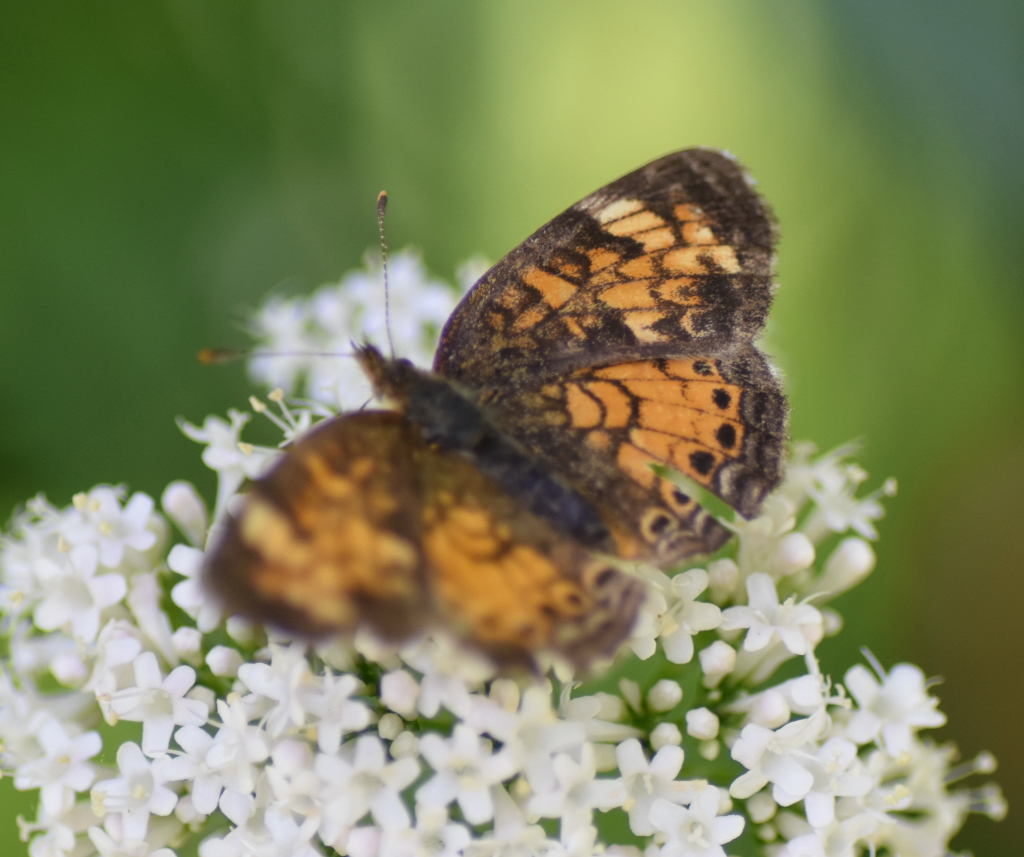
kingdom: Animalia
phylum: Arthropoda
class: Insecta
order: Lepidoptera
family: Nymphalidae
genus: Phyciodes
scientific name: Phyciodes tharos
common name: Pearl crescent
